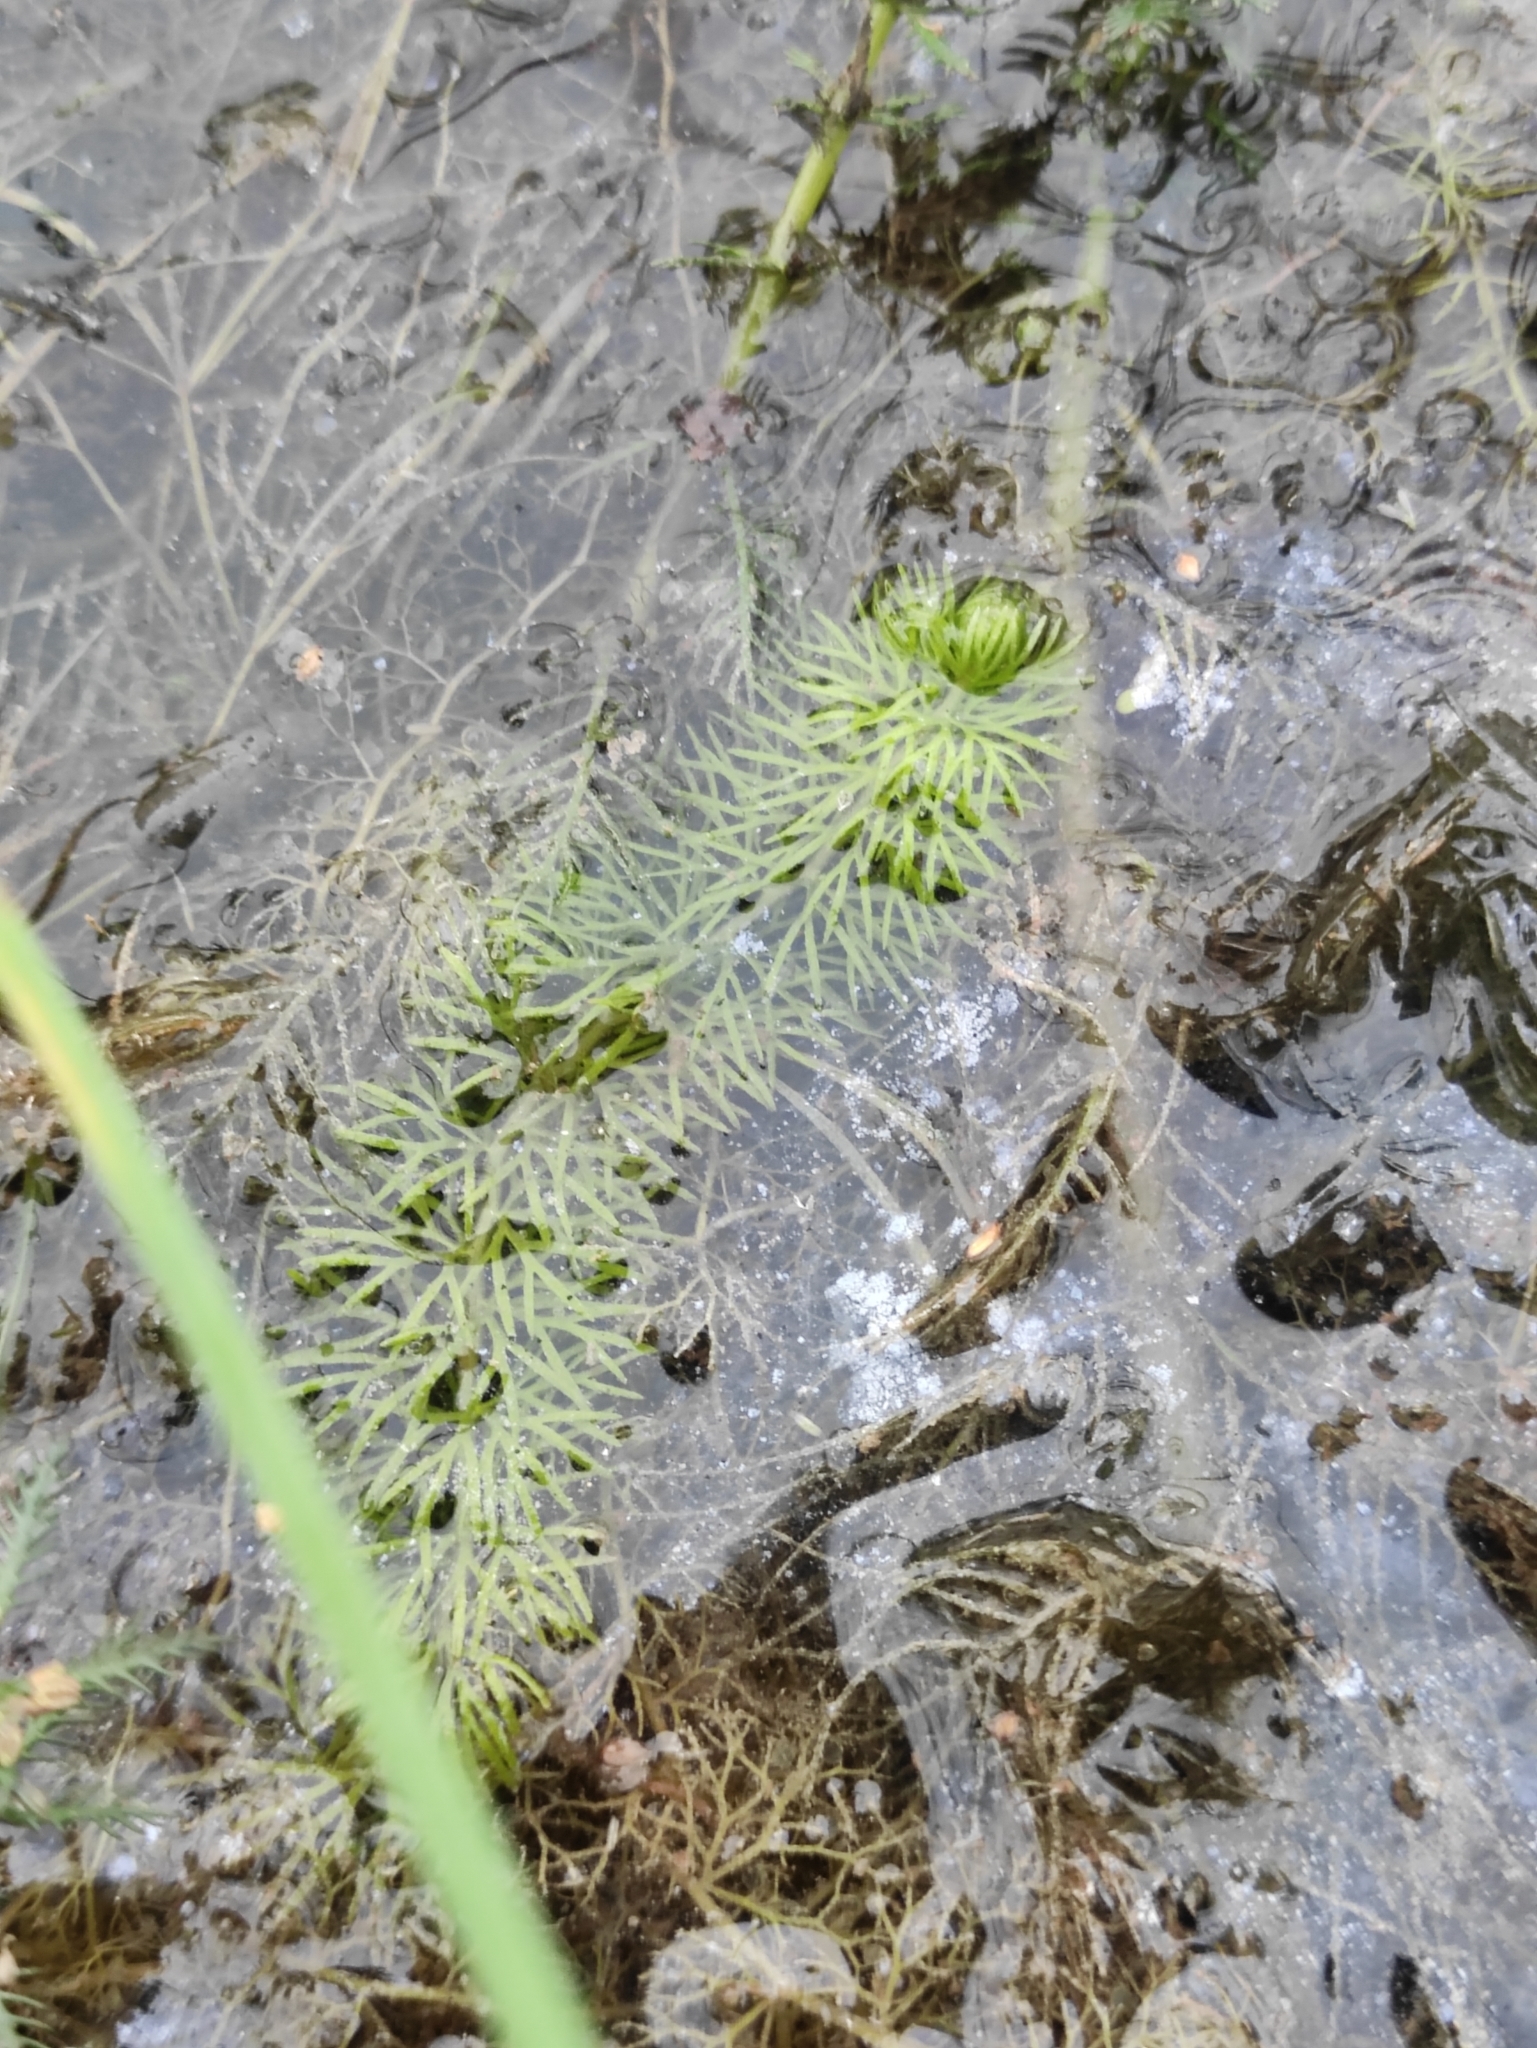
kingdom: Plantae
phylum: Tracheophyta
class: Magnoliopsida
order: Lamiales
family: Lentibulariaceae
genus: Utricularia
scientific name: Utricularia intermedia
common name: Intermediate bladderwort
